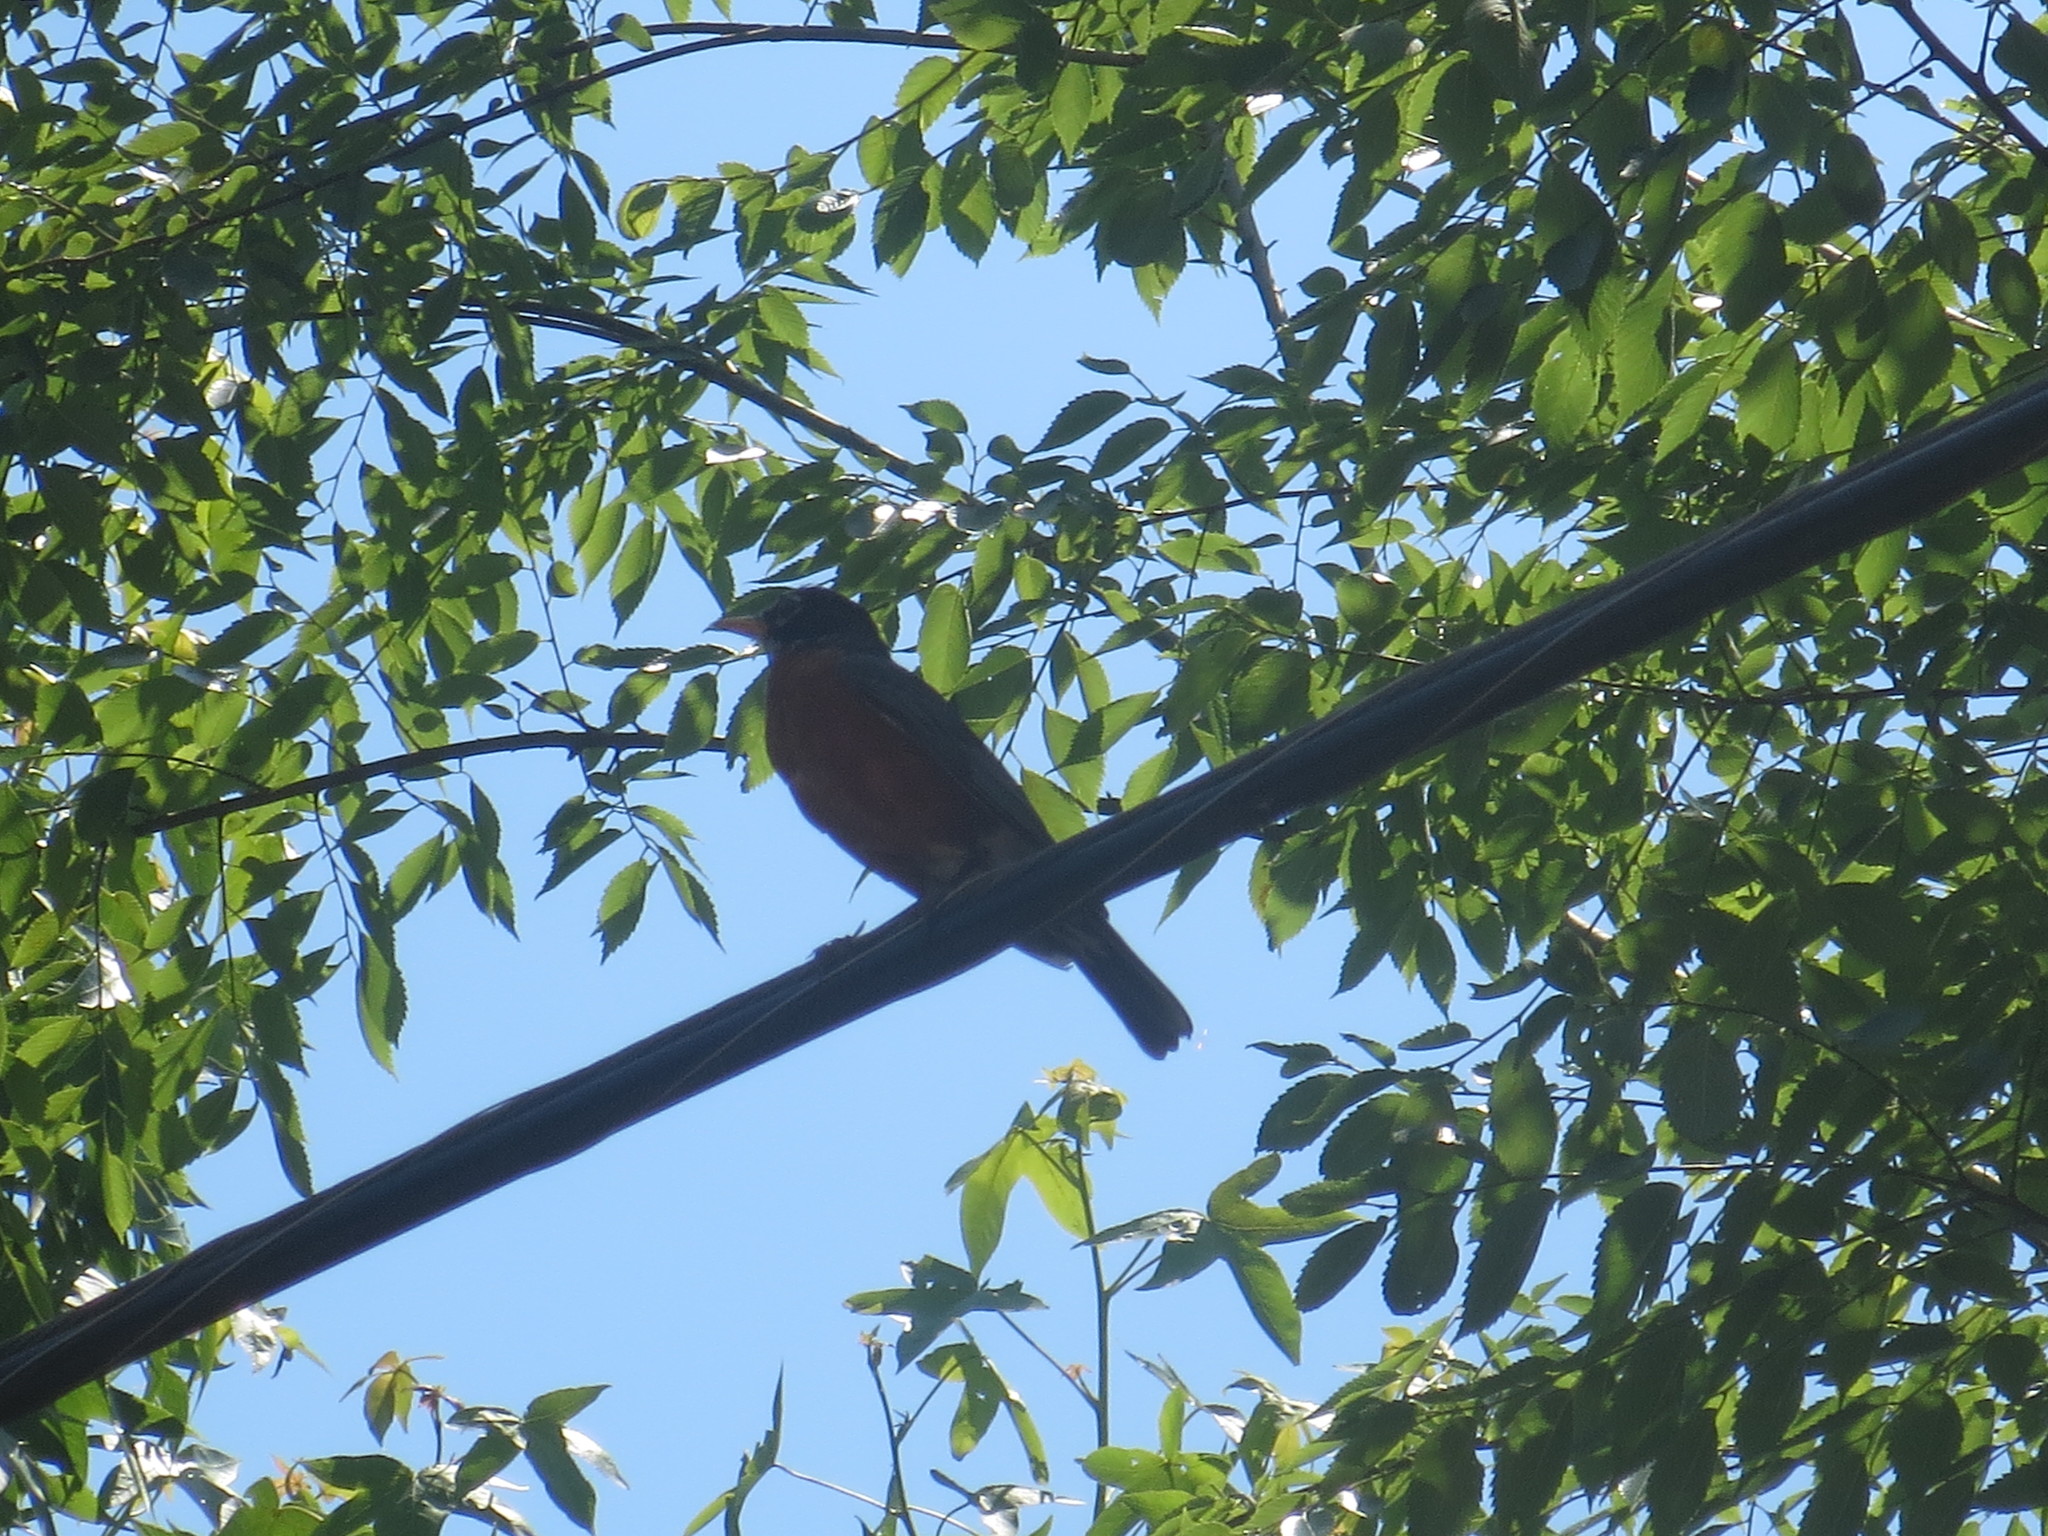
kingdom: Animalia
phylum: Chordata
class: Aves
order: Passeriformes
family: Turdidae
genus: Turdus
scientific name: Turdus migratorius
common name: American robin
